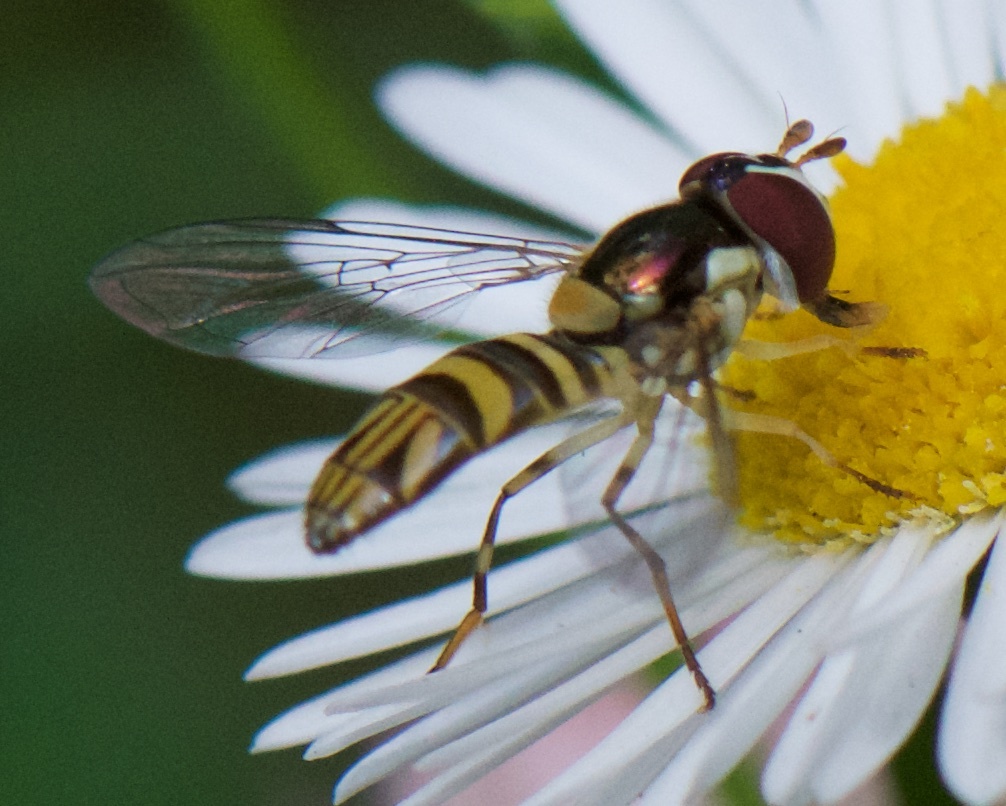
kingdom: Animalia
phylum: Arthropoda
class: Insecta
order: Diptera
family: Syrphidae
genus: Allograpta
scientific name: Allograpta obliqua
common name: Common oblique syrphid
